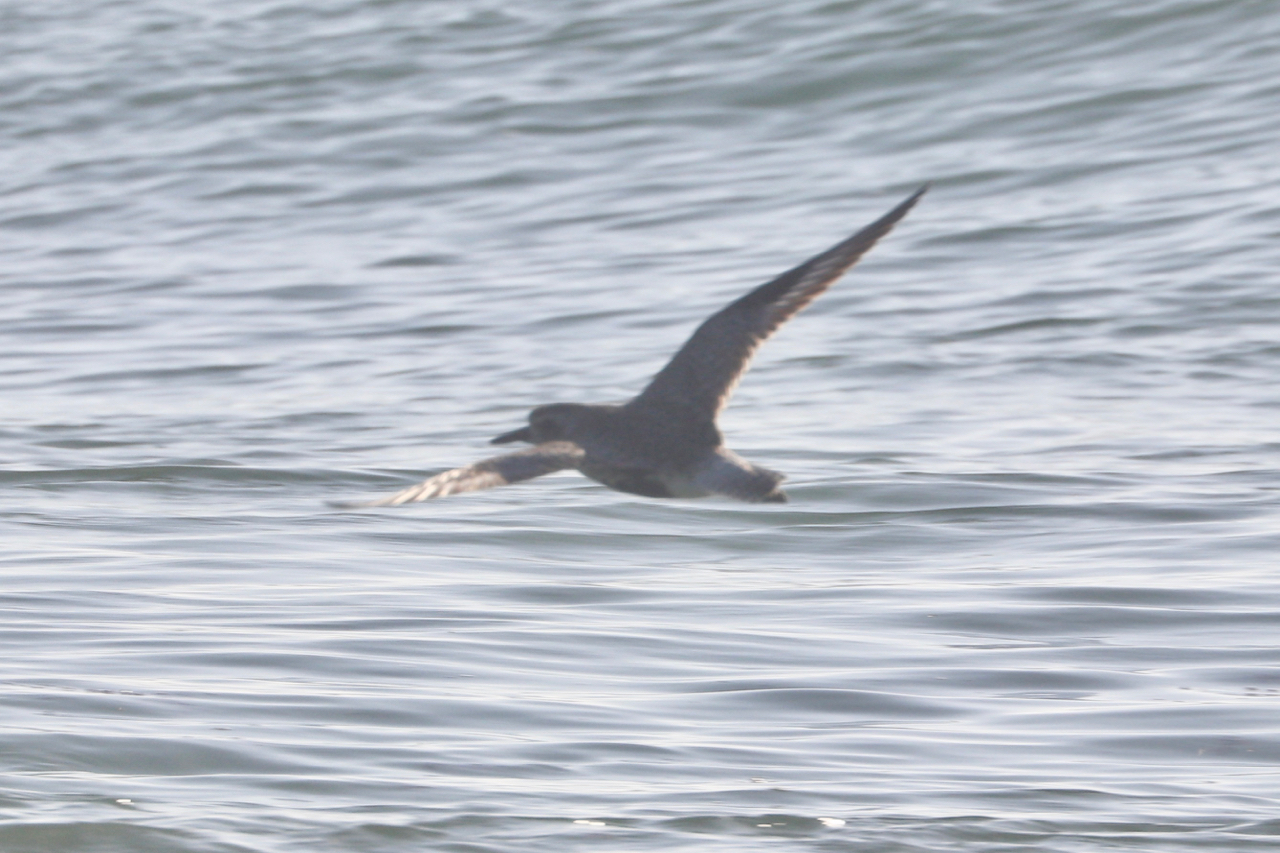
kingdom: Animalia
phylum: Chordata
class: Aves
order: Charadriiformes
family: Charadriidae
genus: Pluvialis
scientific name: Pluvialis squatarola
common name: Grey plover
